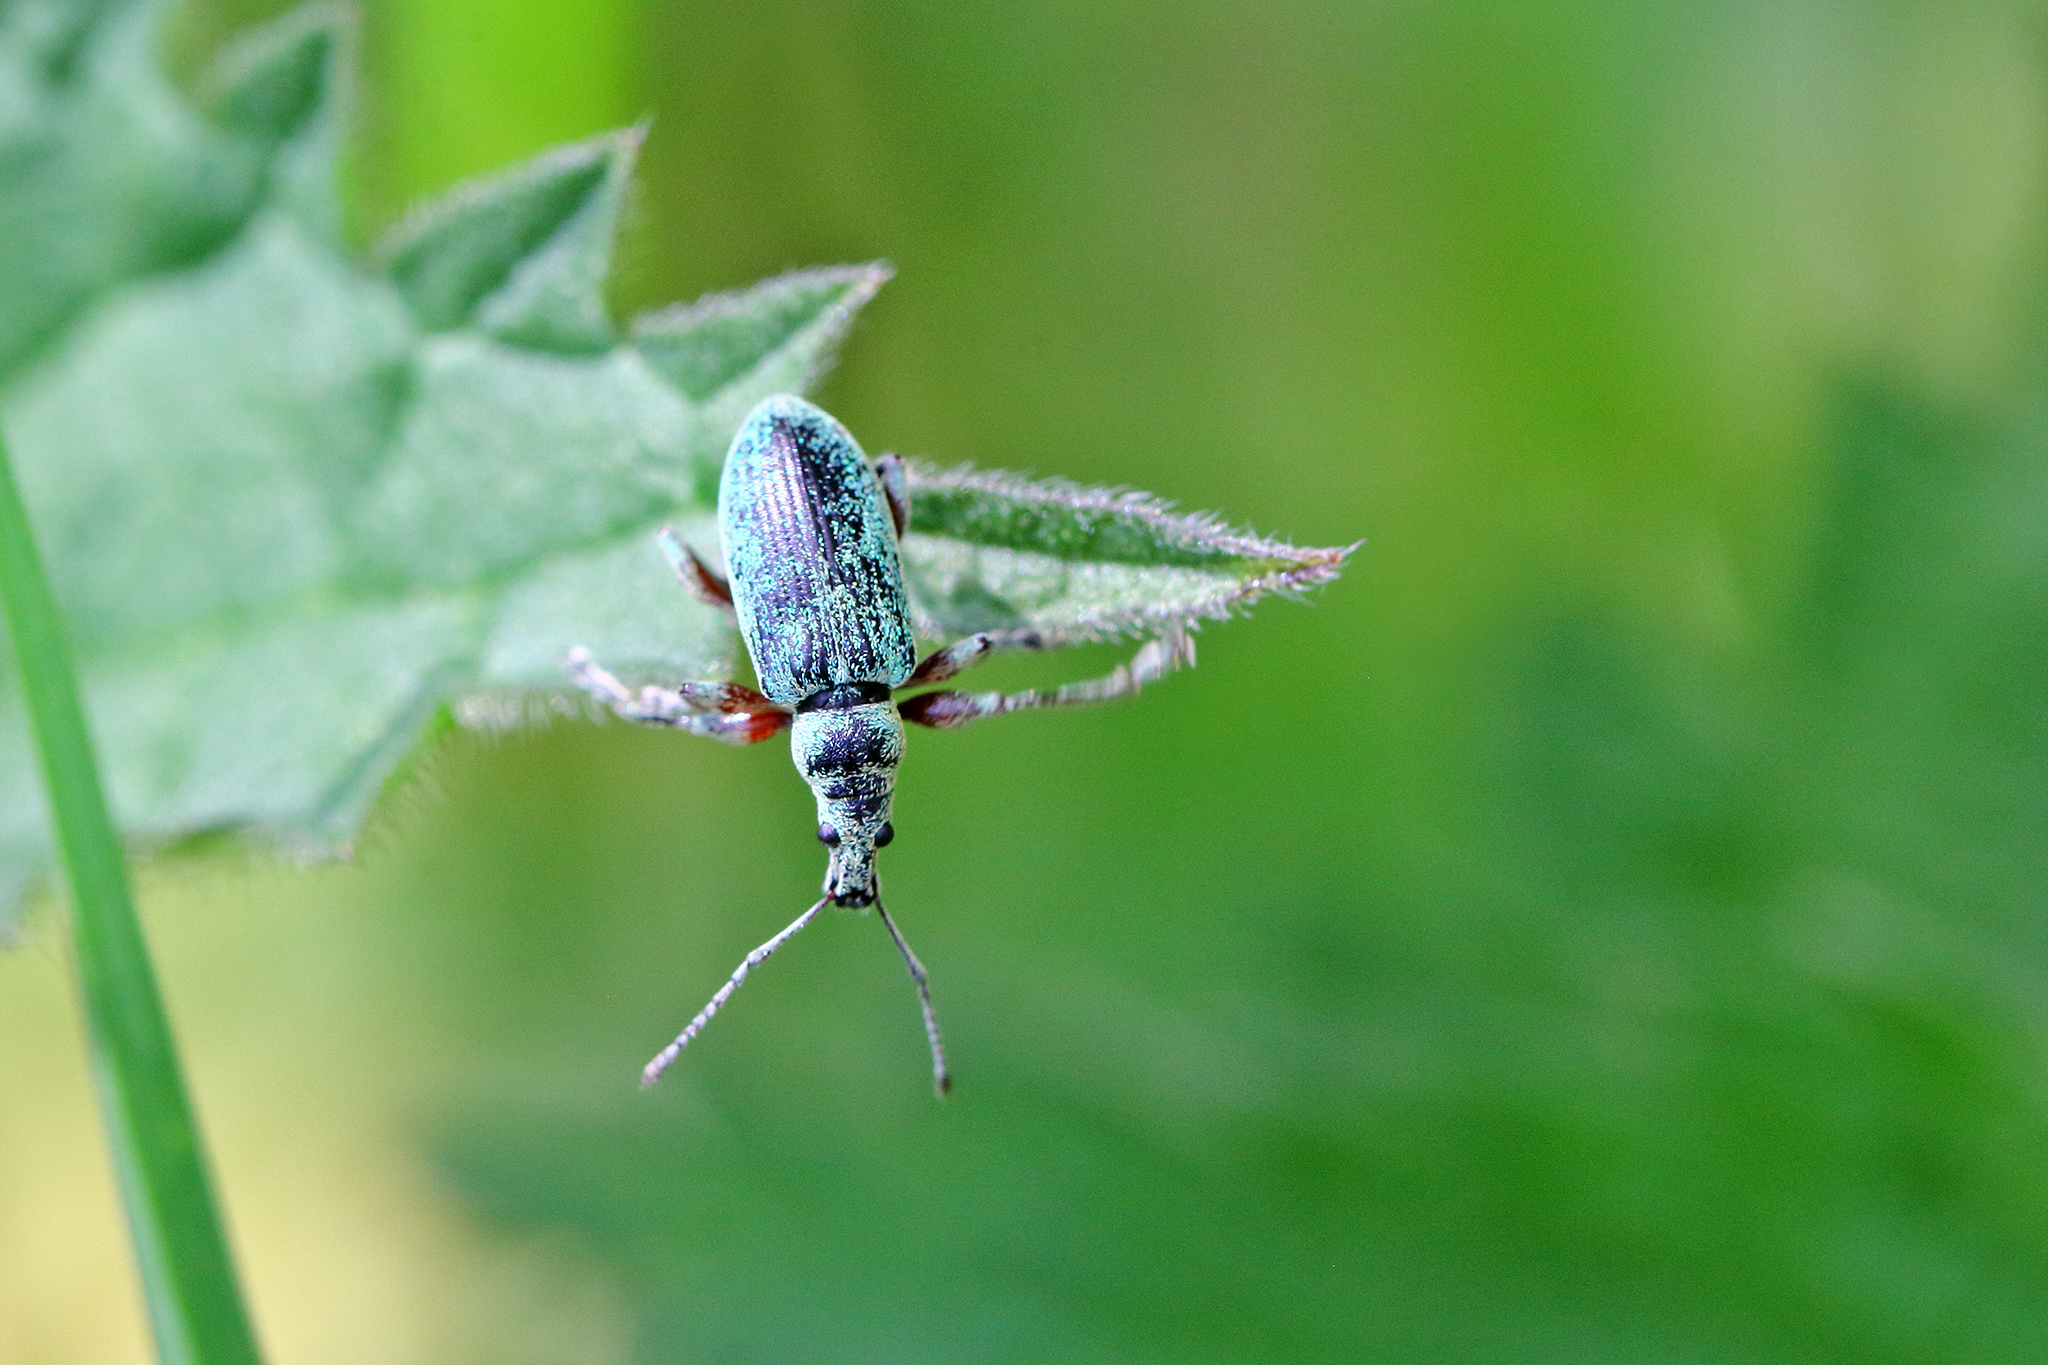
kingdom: Animalia
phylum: Arthropoda
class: Insecta
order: Coleoptera
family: Curculionidae
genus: Phyllobius
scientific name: Phyllobius pomaceus
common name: Green nettle weevil
